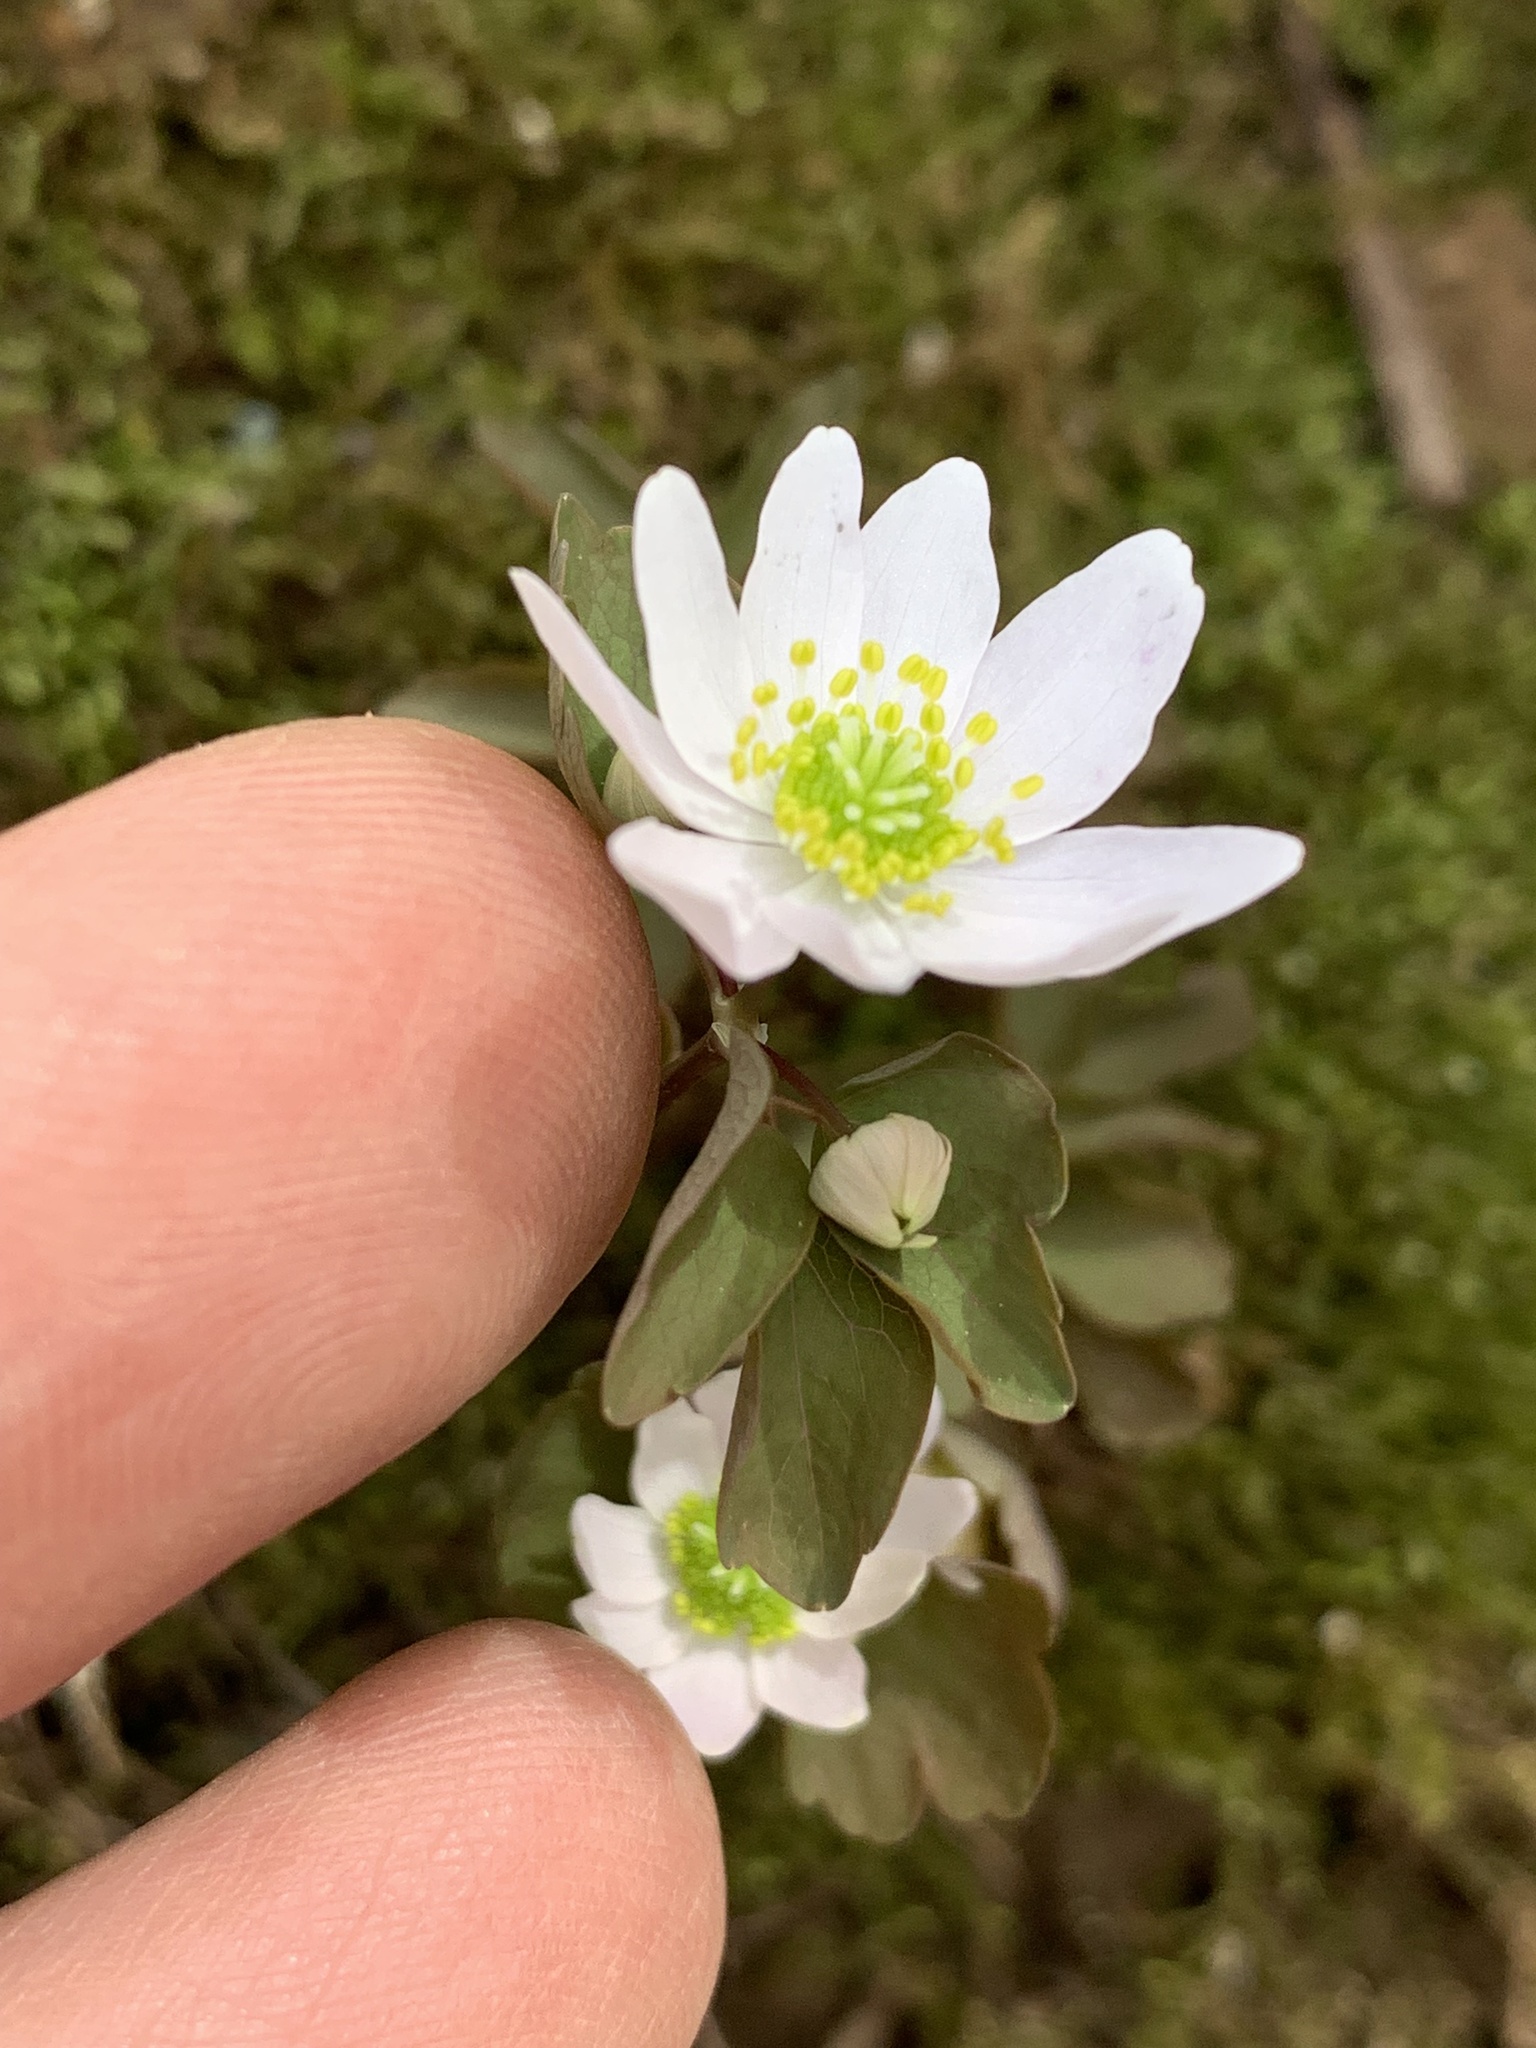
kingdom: Plantae
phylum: Tracheophyta
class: Magnoliopsida
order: Ranunculales
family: Ranunculaceae
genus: Thalictrum
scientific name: Thalictrum thalictroides
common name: Rue-anemone
